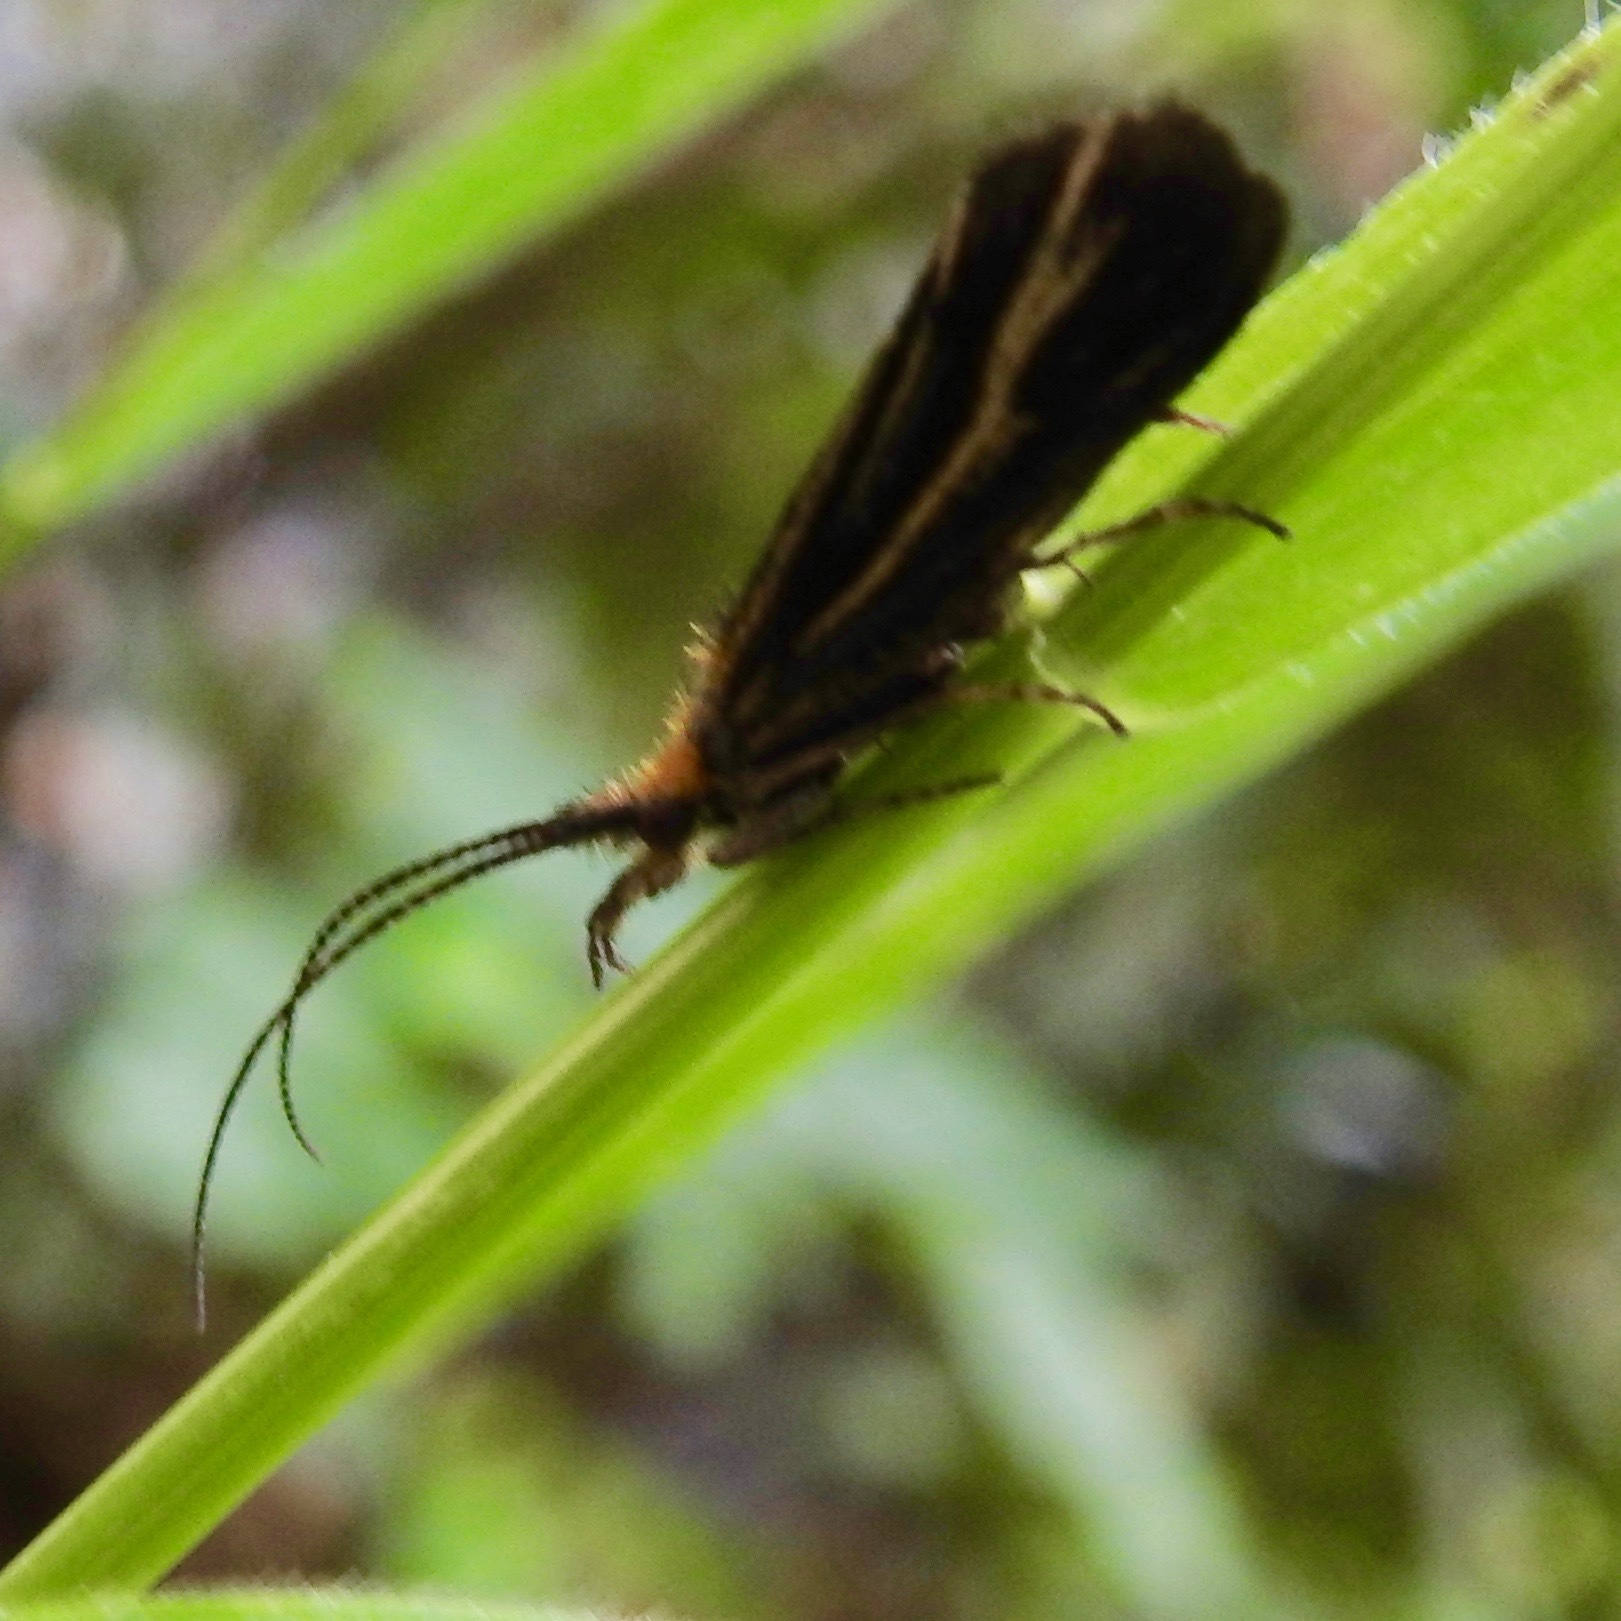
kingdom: Animalia
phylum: Arthropoda
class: Insecta
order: Trichoptera
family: Odontoceridae
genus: Nerophilus
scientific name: Nerophilus californicus
